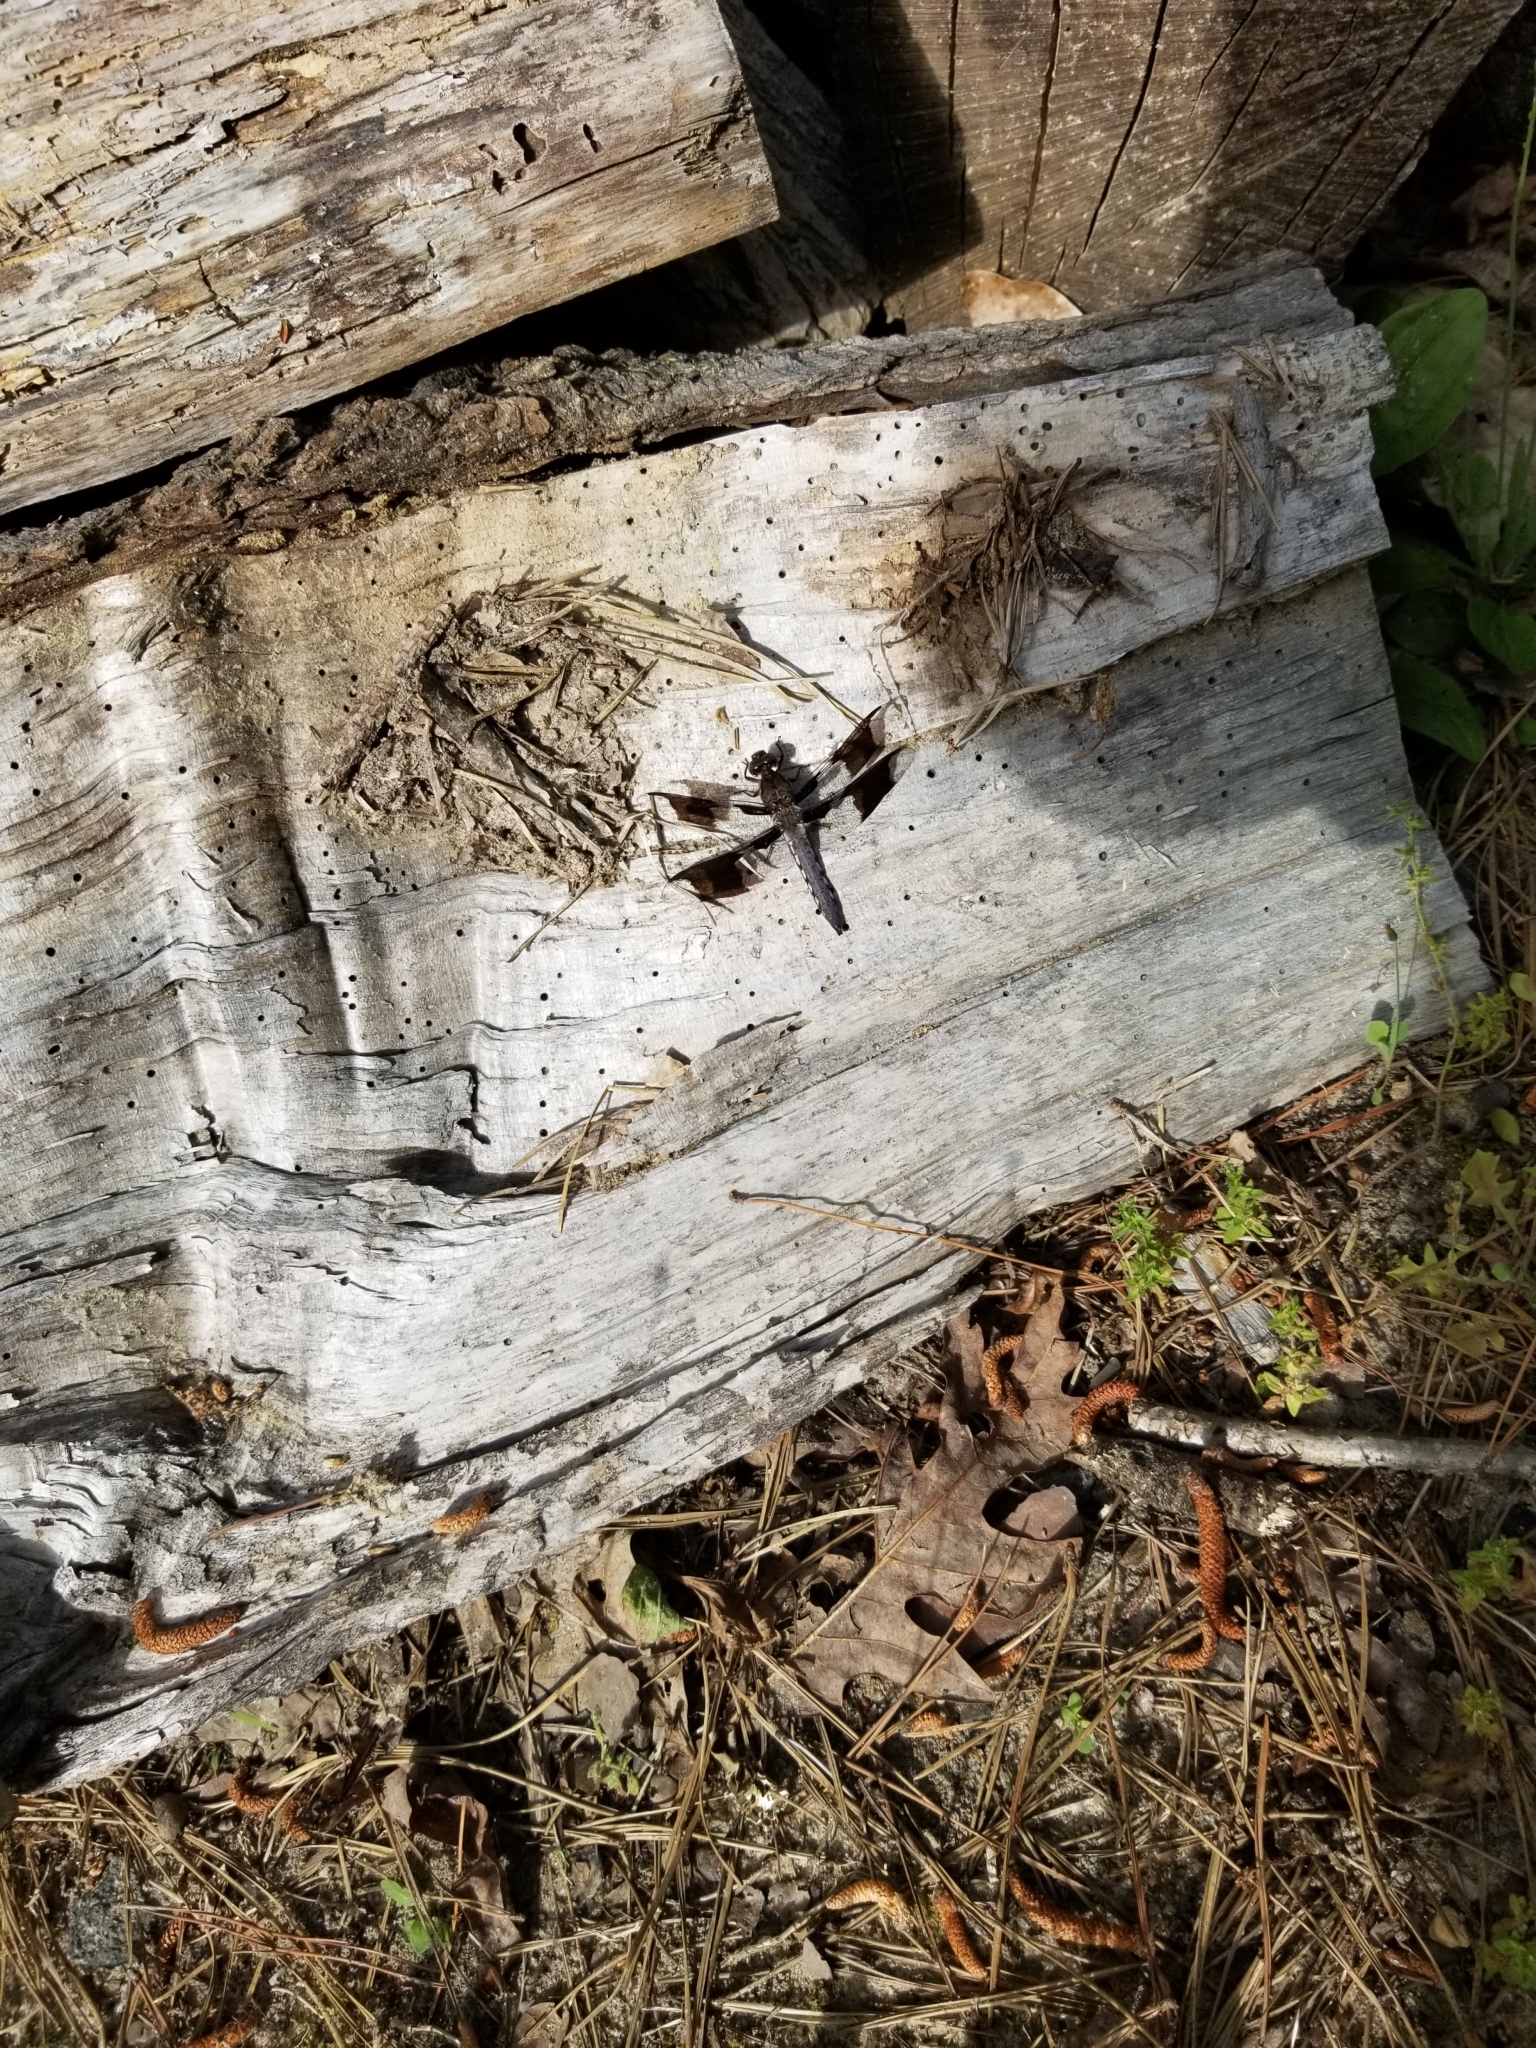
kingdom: Animalia
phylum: Arthropoda
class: Insecta
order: Odonata
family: Libellulidae
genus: Plathemis
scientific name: Plathemis lydia
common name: Common whitetail
